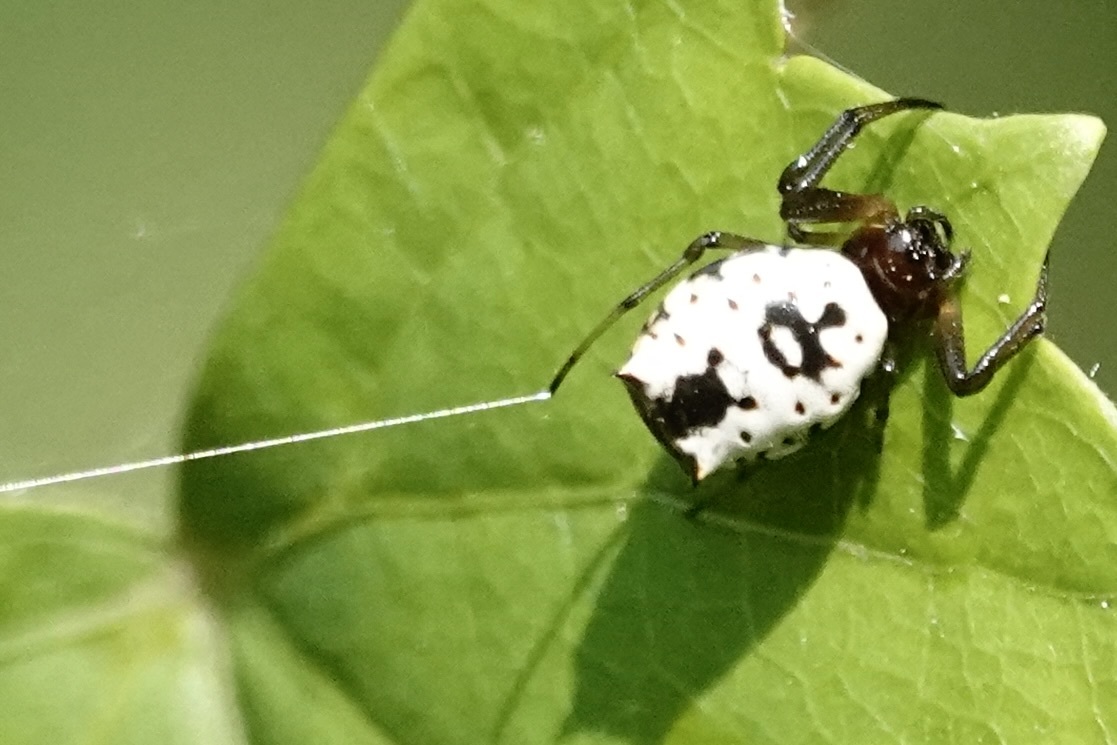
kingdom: Animalia
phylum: Arthropoda
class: Arachnida
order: Araneae
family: Araneidae
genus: Micrathena
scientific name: Micrathena mitrata
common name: Orb weavers
